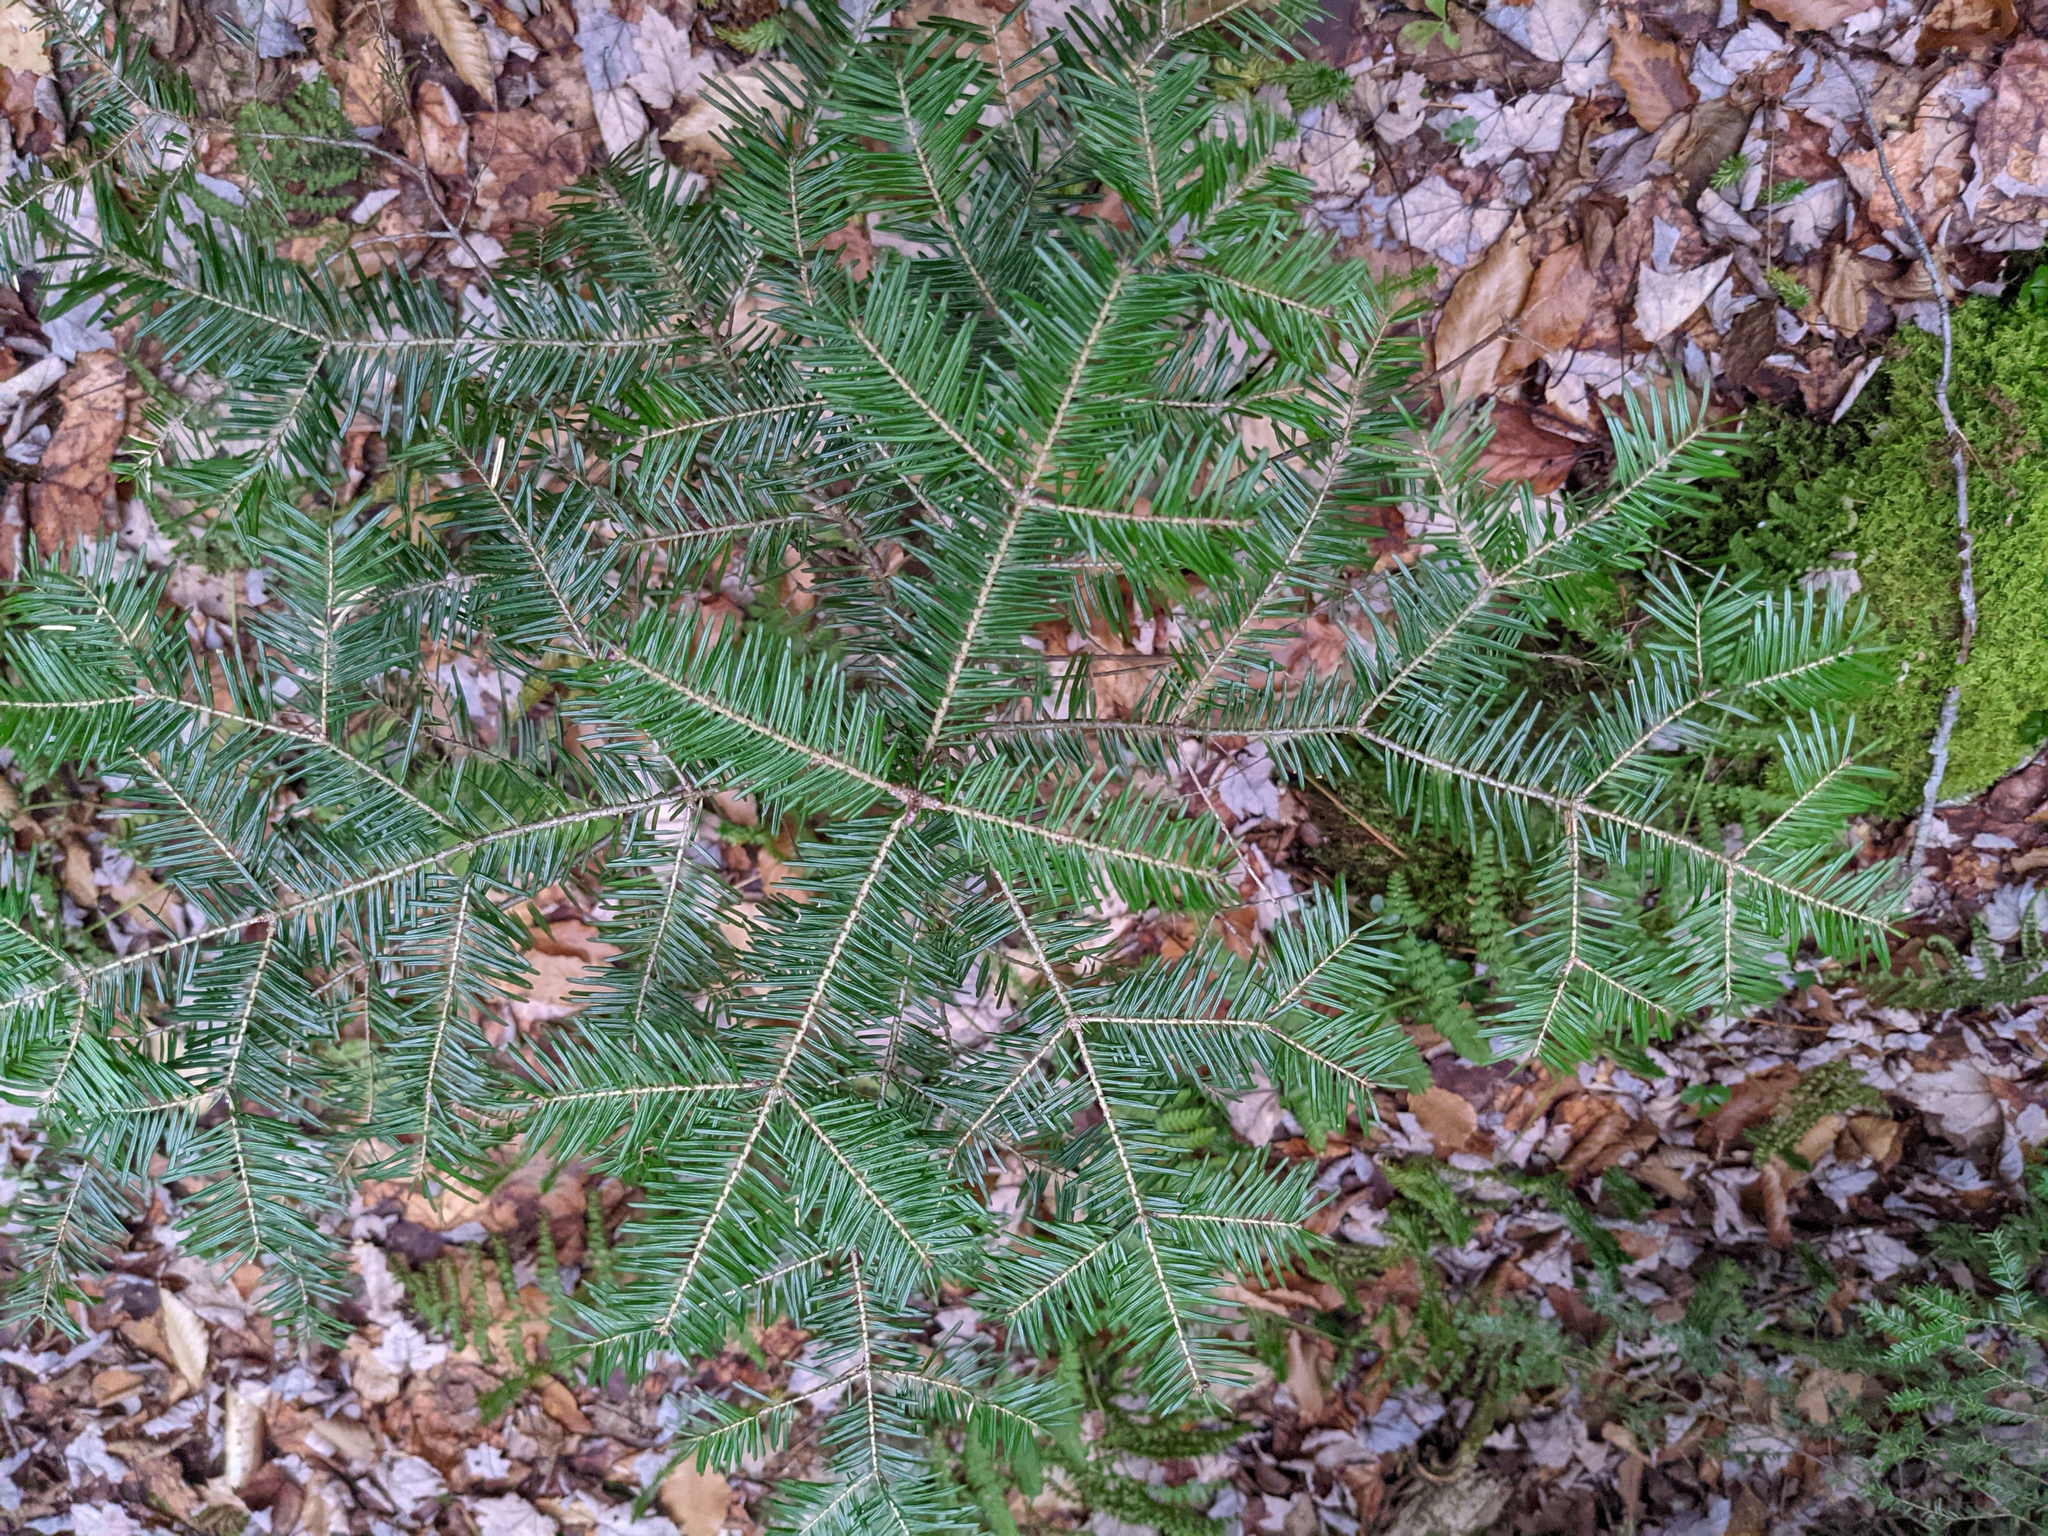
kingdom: Plantae
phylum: Tracheophyta
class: Pinopsida
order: Pinales
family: Pinaceae
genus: Abies
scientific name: Abies balsamea
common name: Balsam fir
